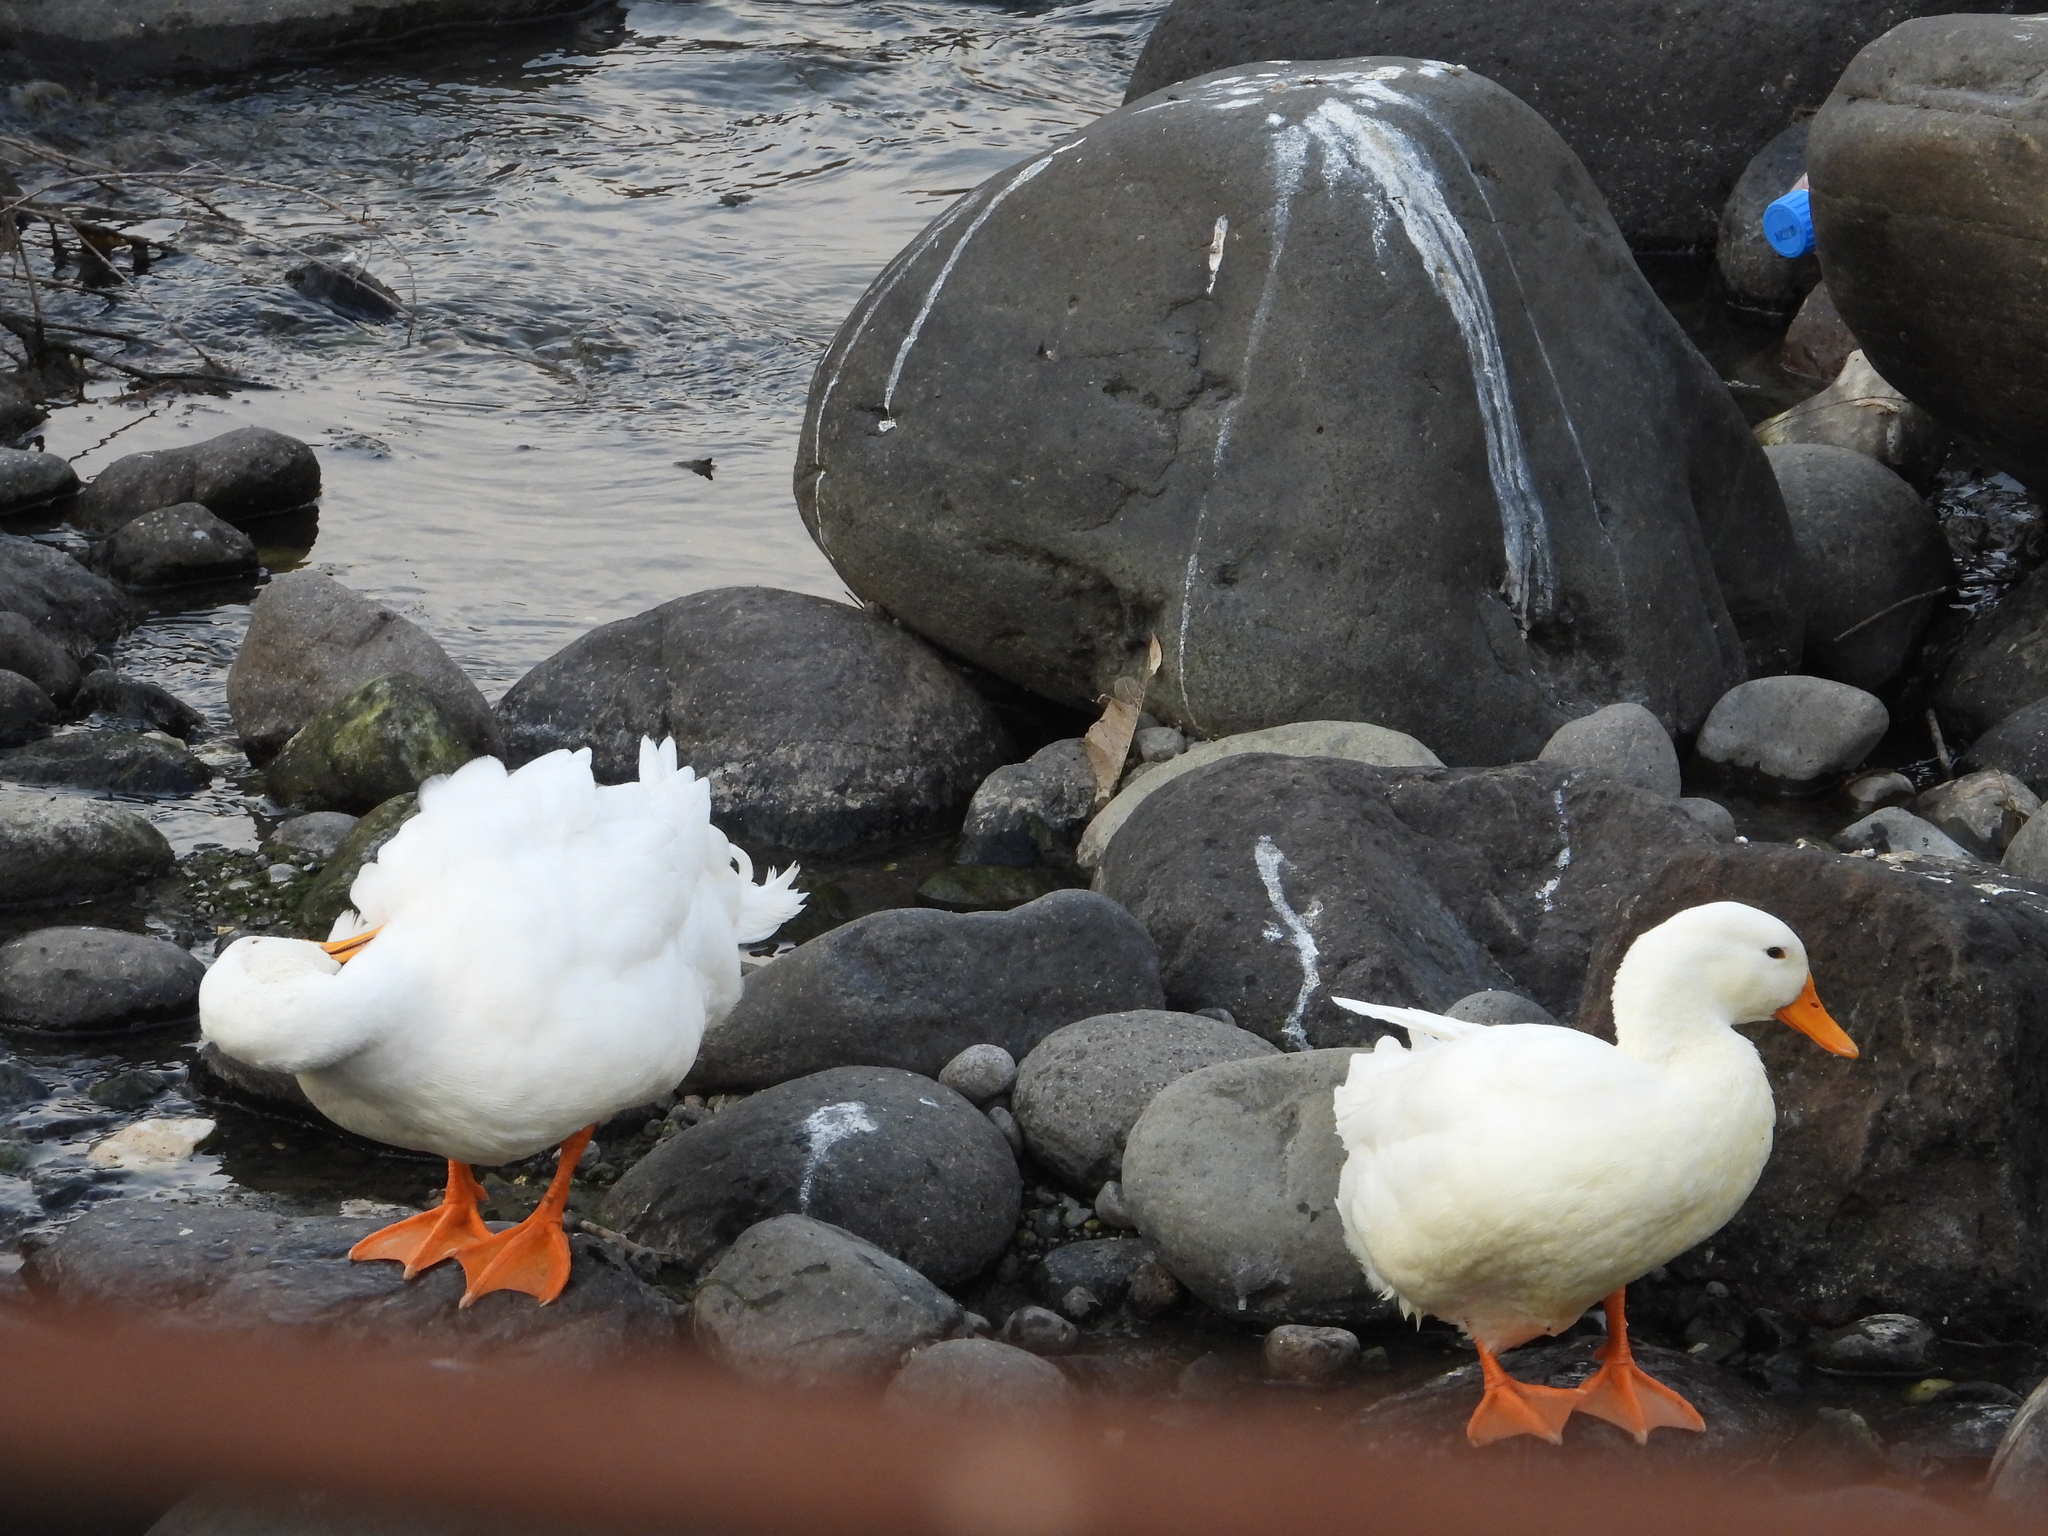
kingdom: Animalia
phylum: Chordata
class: Aves
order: Anseriformes
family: Anatidae
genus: Anas
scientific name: Anas platyrhynchos
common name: Mallard
